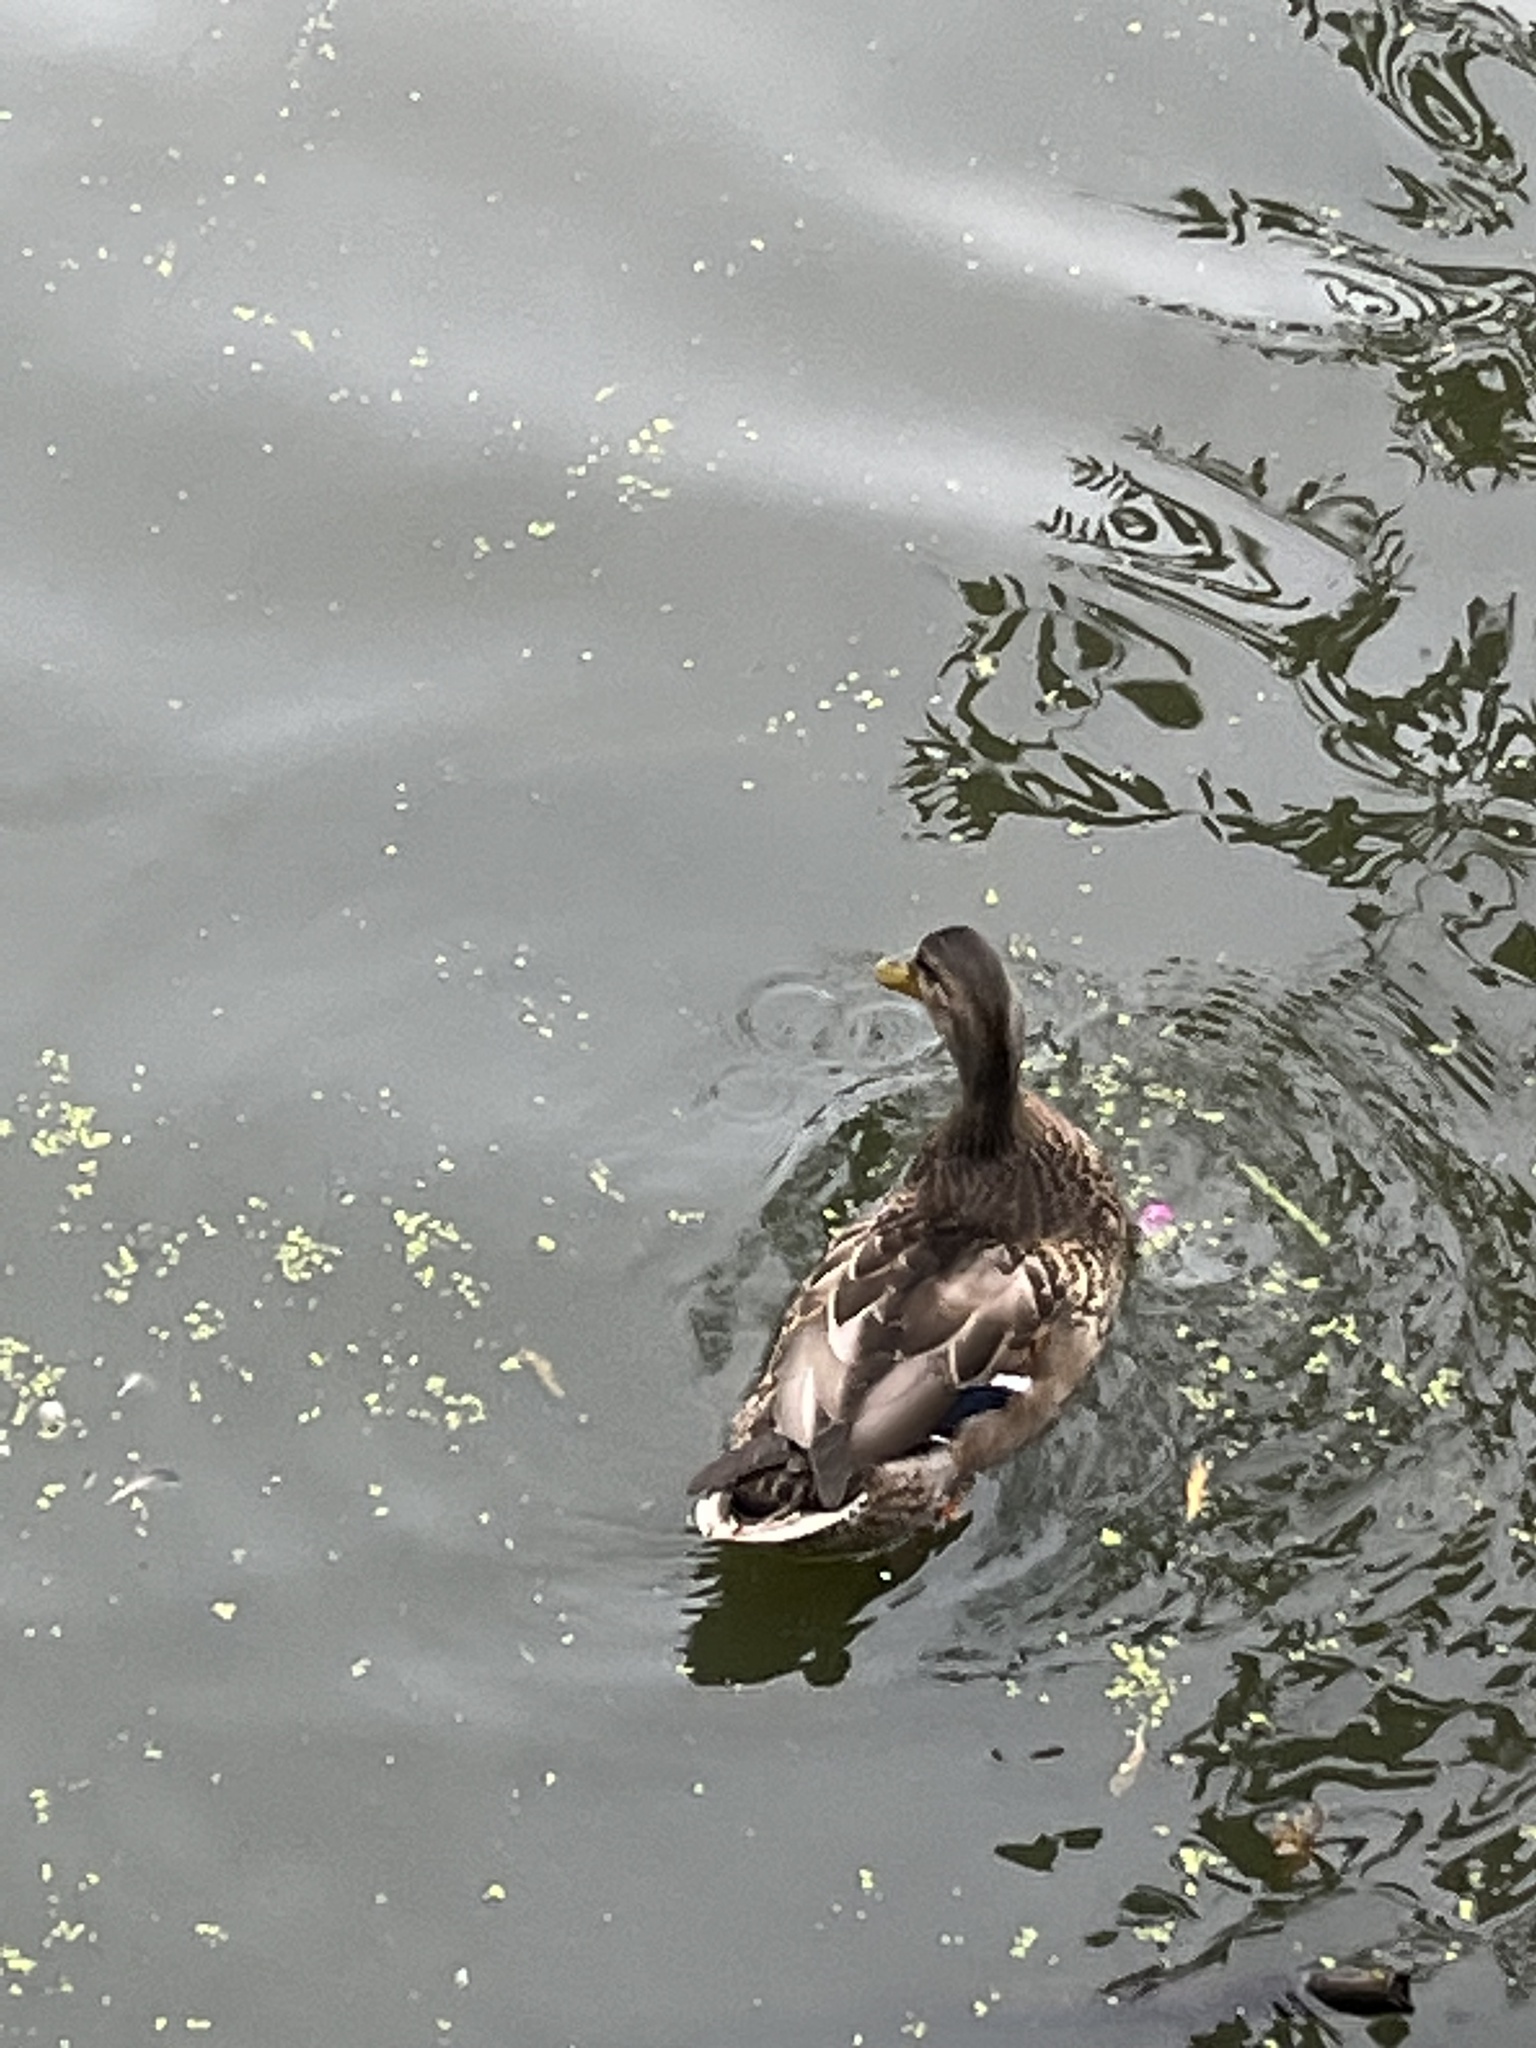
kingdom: Animalia
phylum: Chordata
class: Aves
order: Anseriformes
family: Anatidae
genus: Anas
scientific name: Anas platyrhynchos
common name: Mallard
